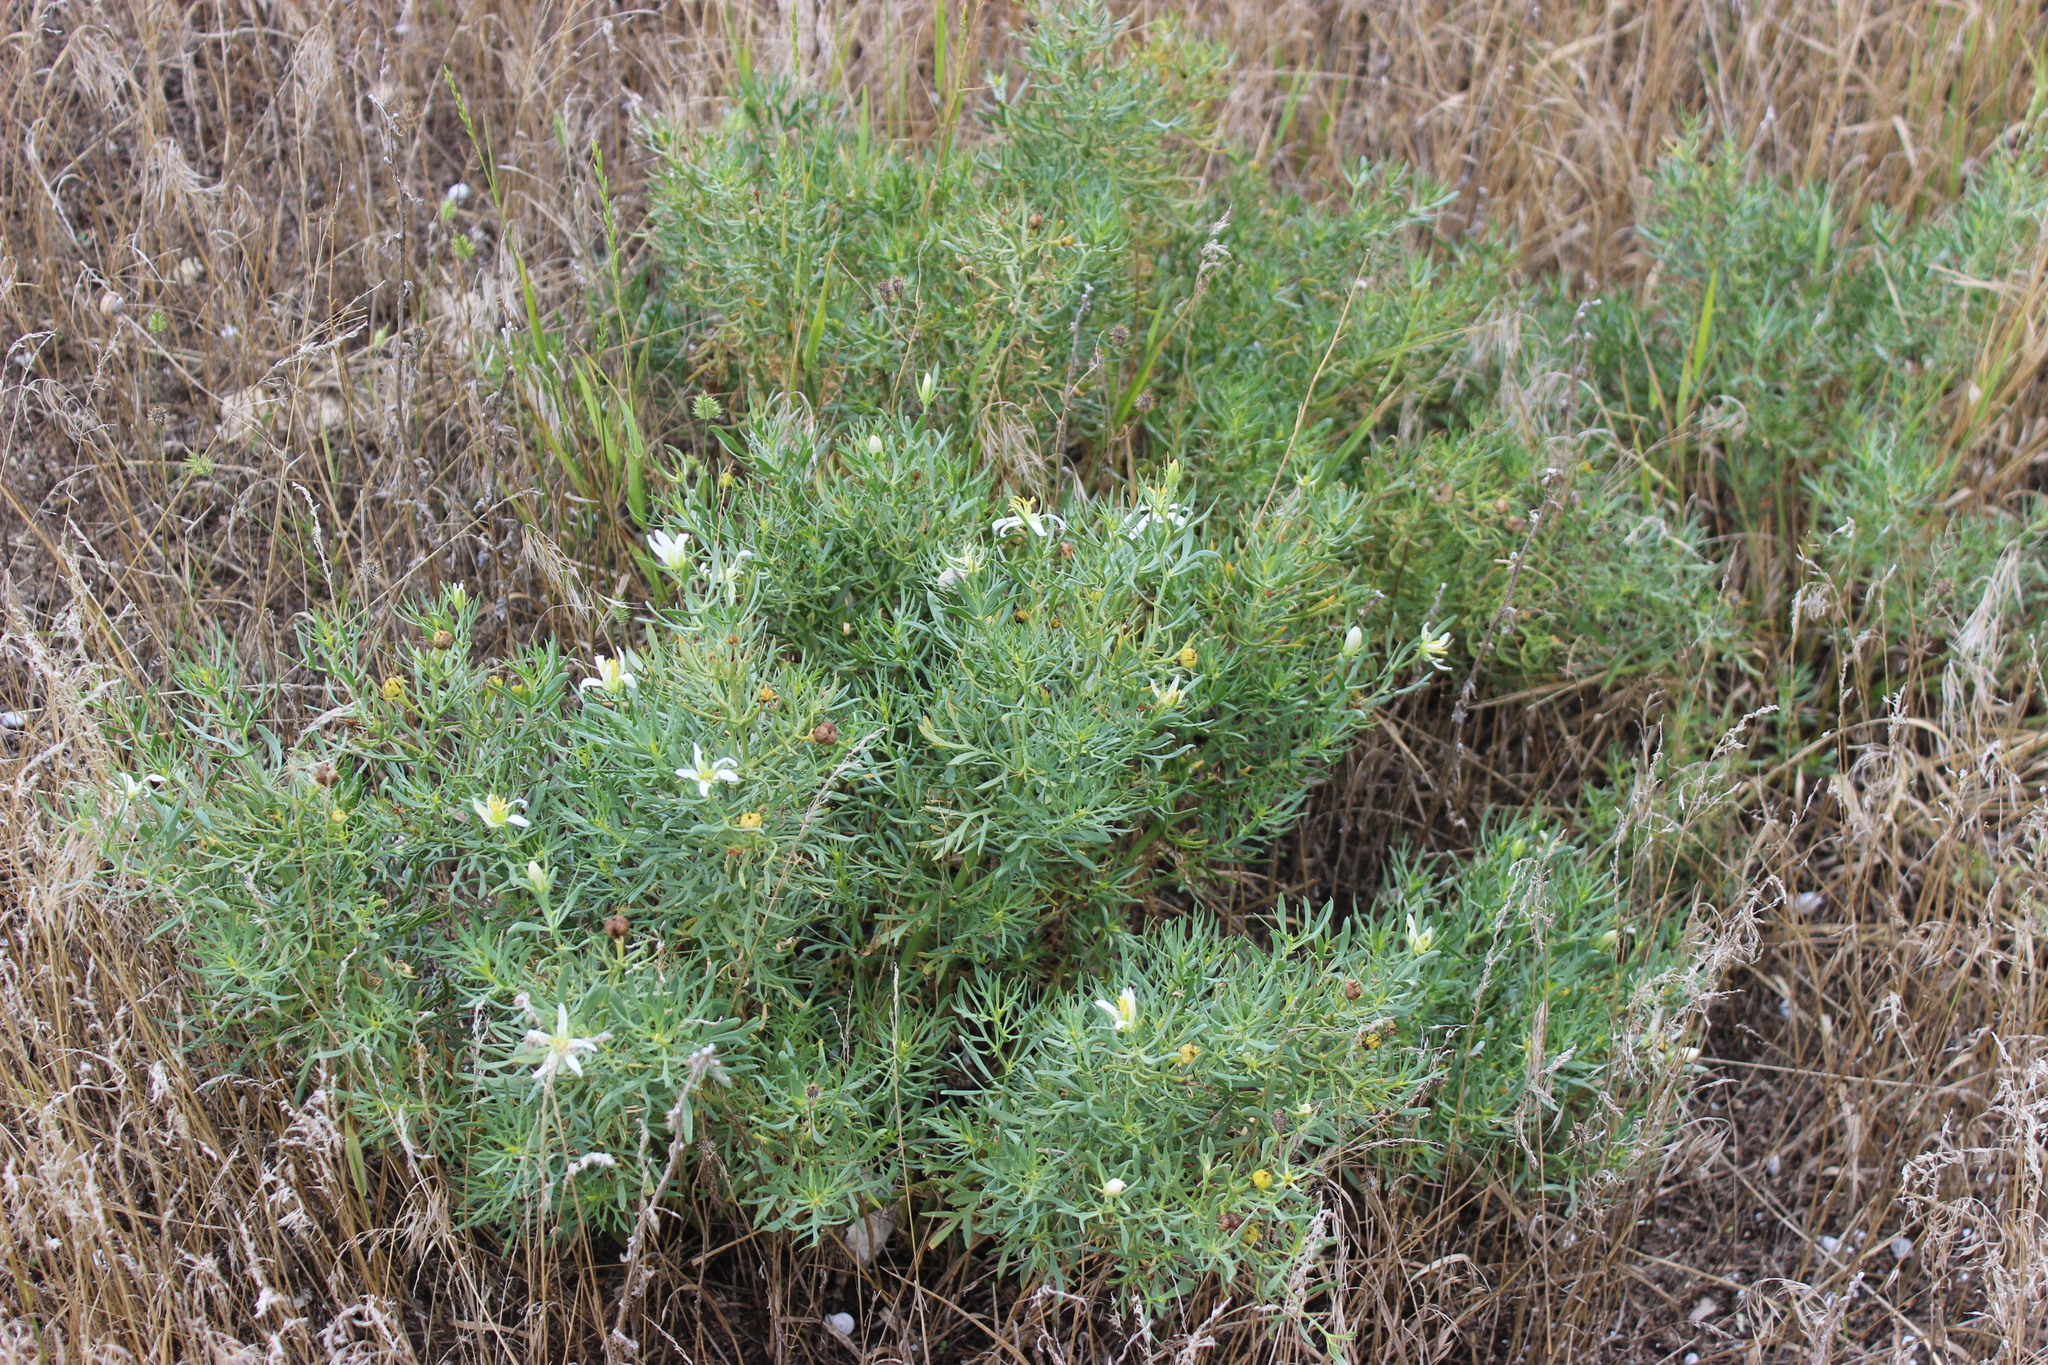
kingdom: Plantae
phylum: Tracheophyta
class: Magnoliopsida
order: Sapindales
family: Tetradiclidaceae
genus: Peganum
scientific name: Peganum harmala
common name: Harmal peganum
